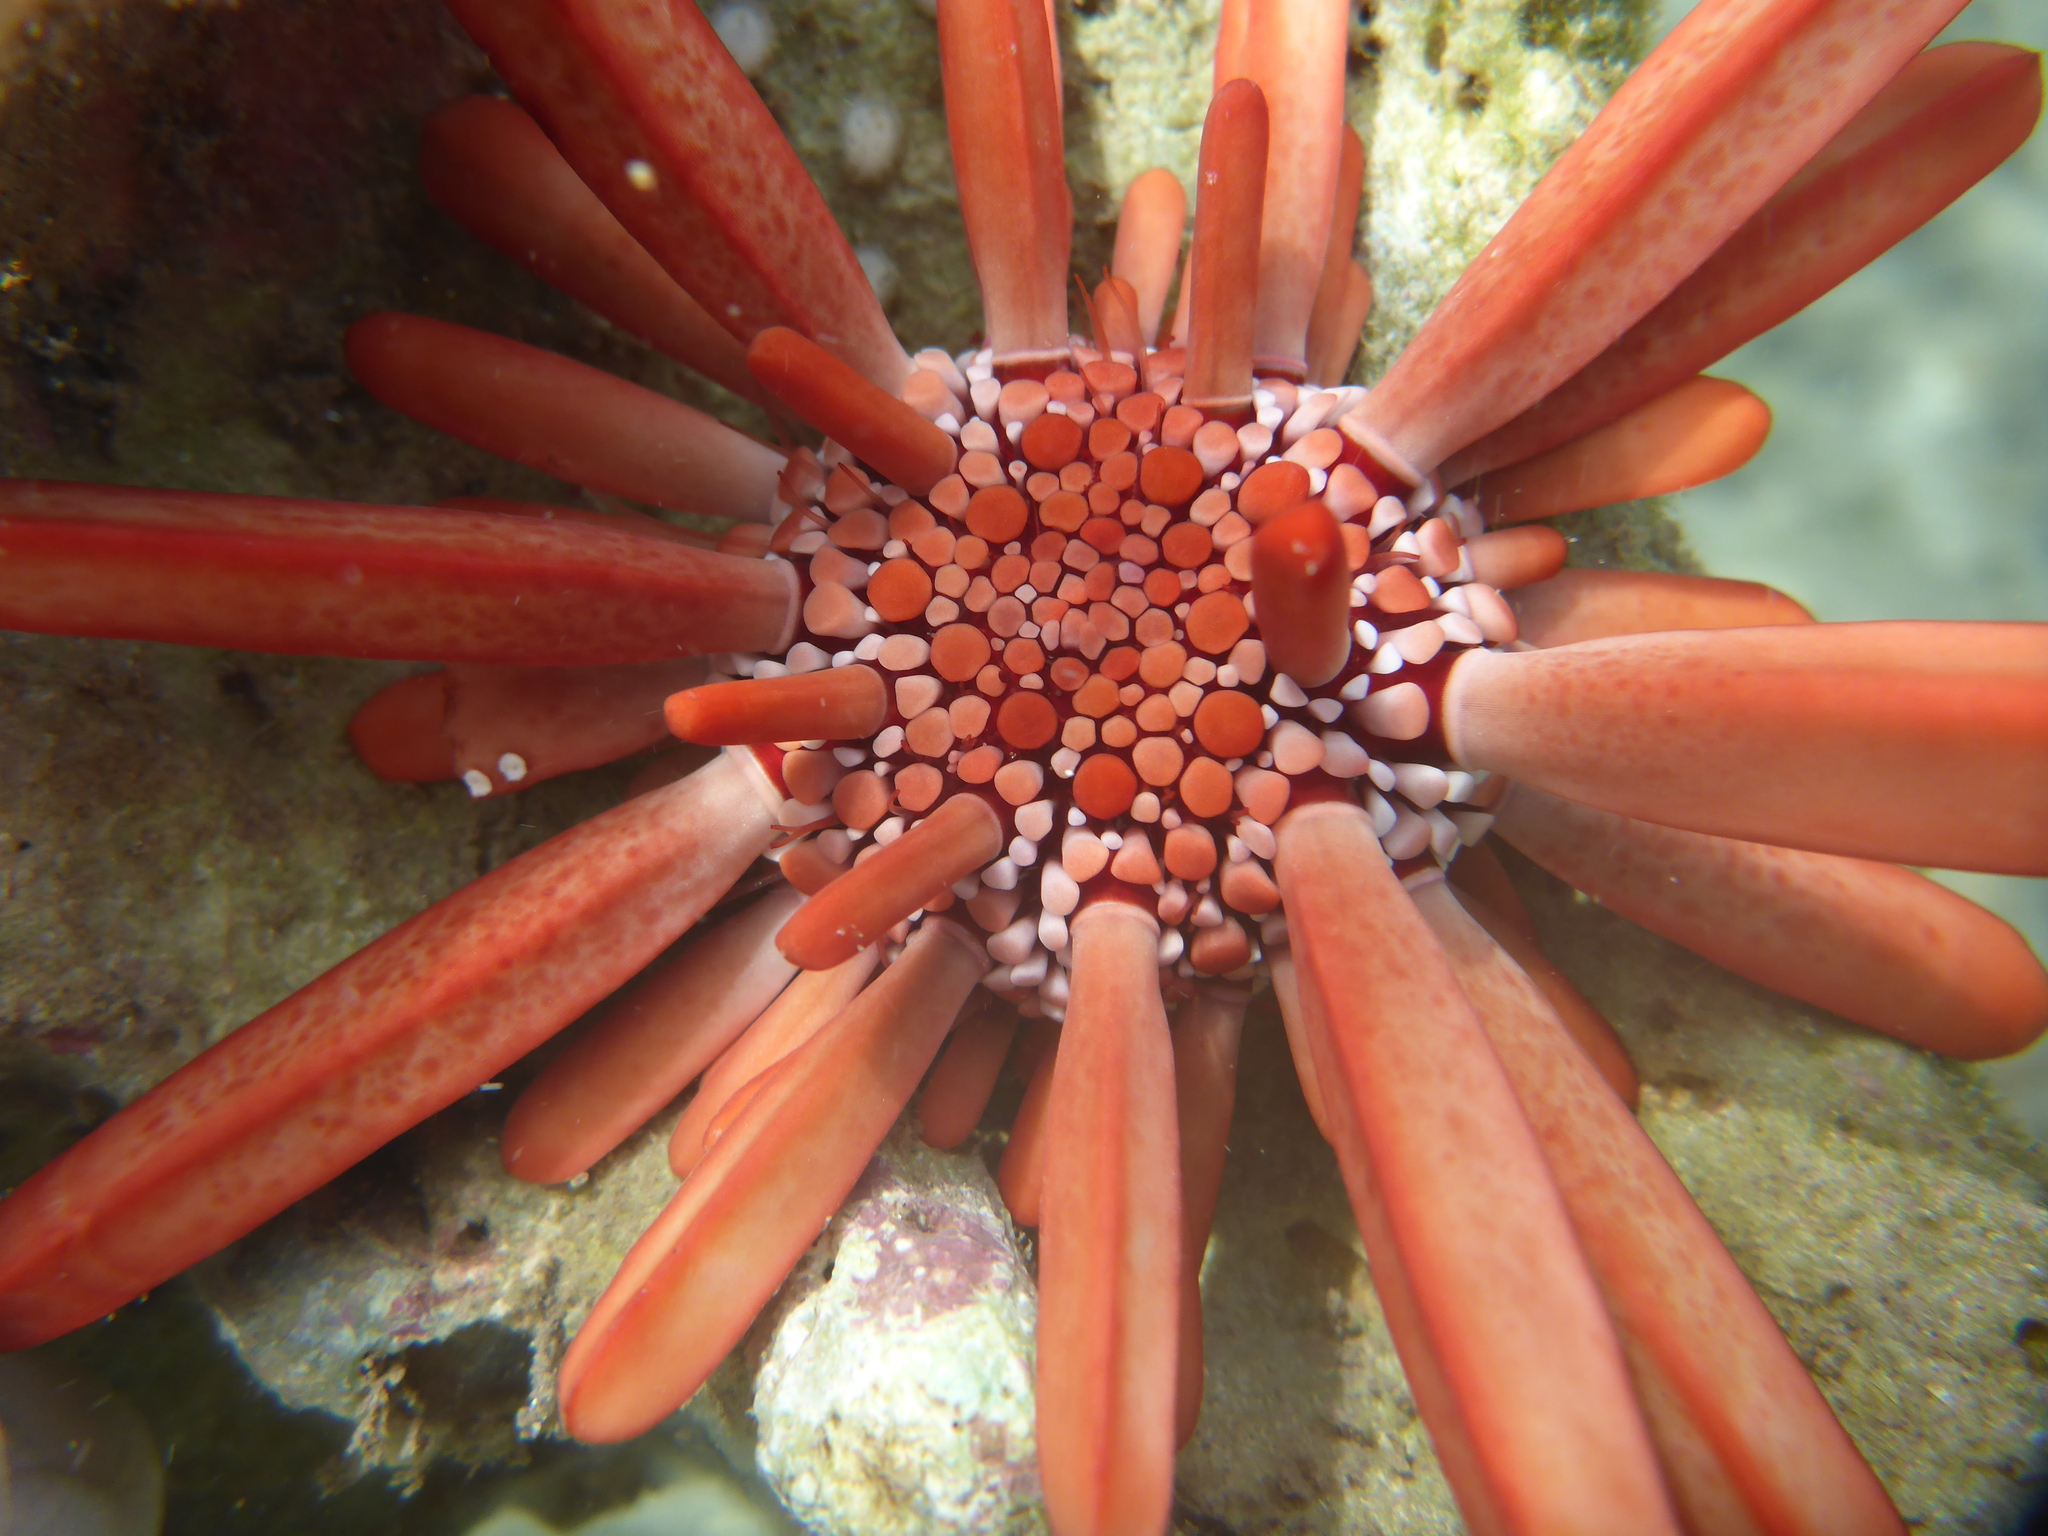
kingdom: Animalia
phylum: Echinodermata
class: Echinoidea
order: Camarodonta
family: Echinometridae
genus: Heterocentrotus
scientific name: Heterocentrotus mamillatus
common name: Slate pencil urchin
